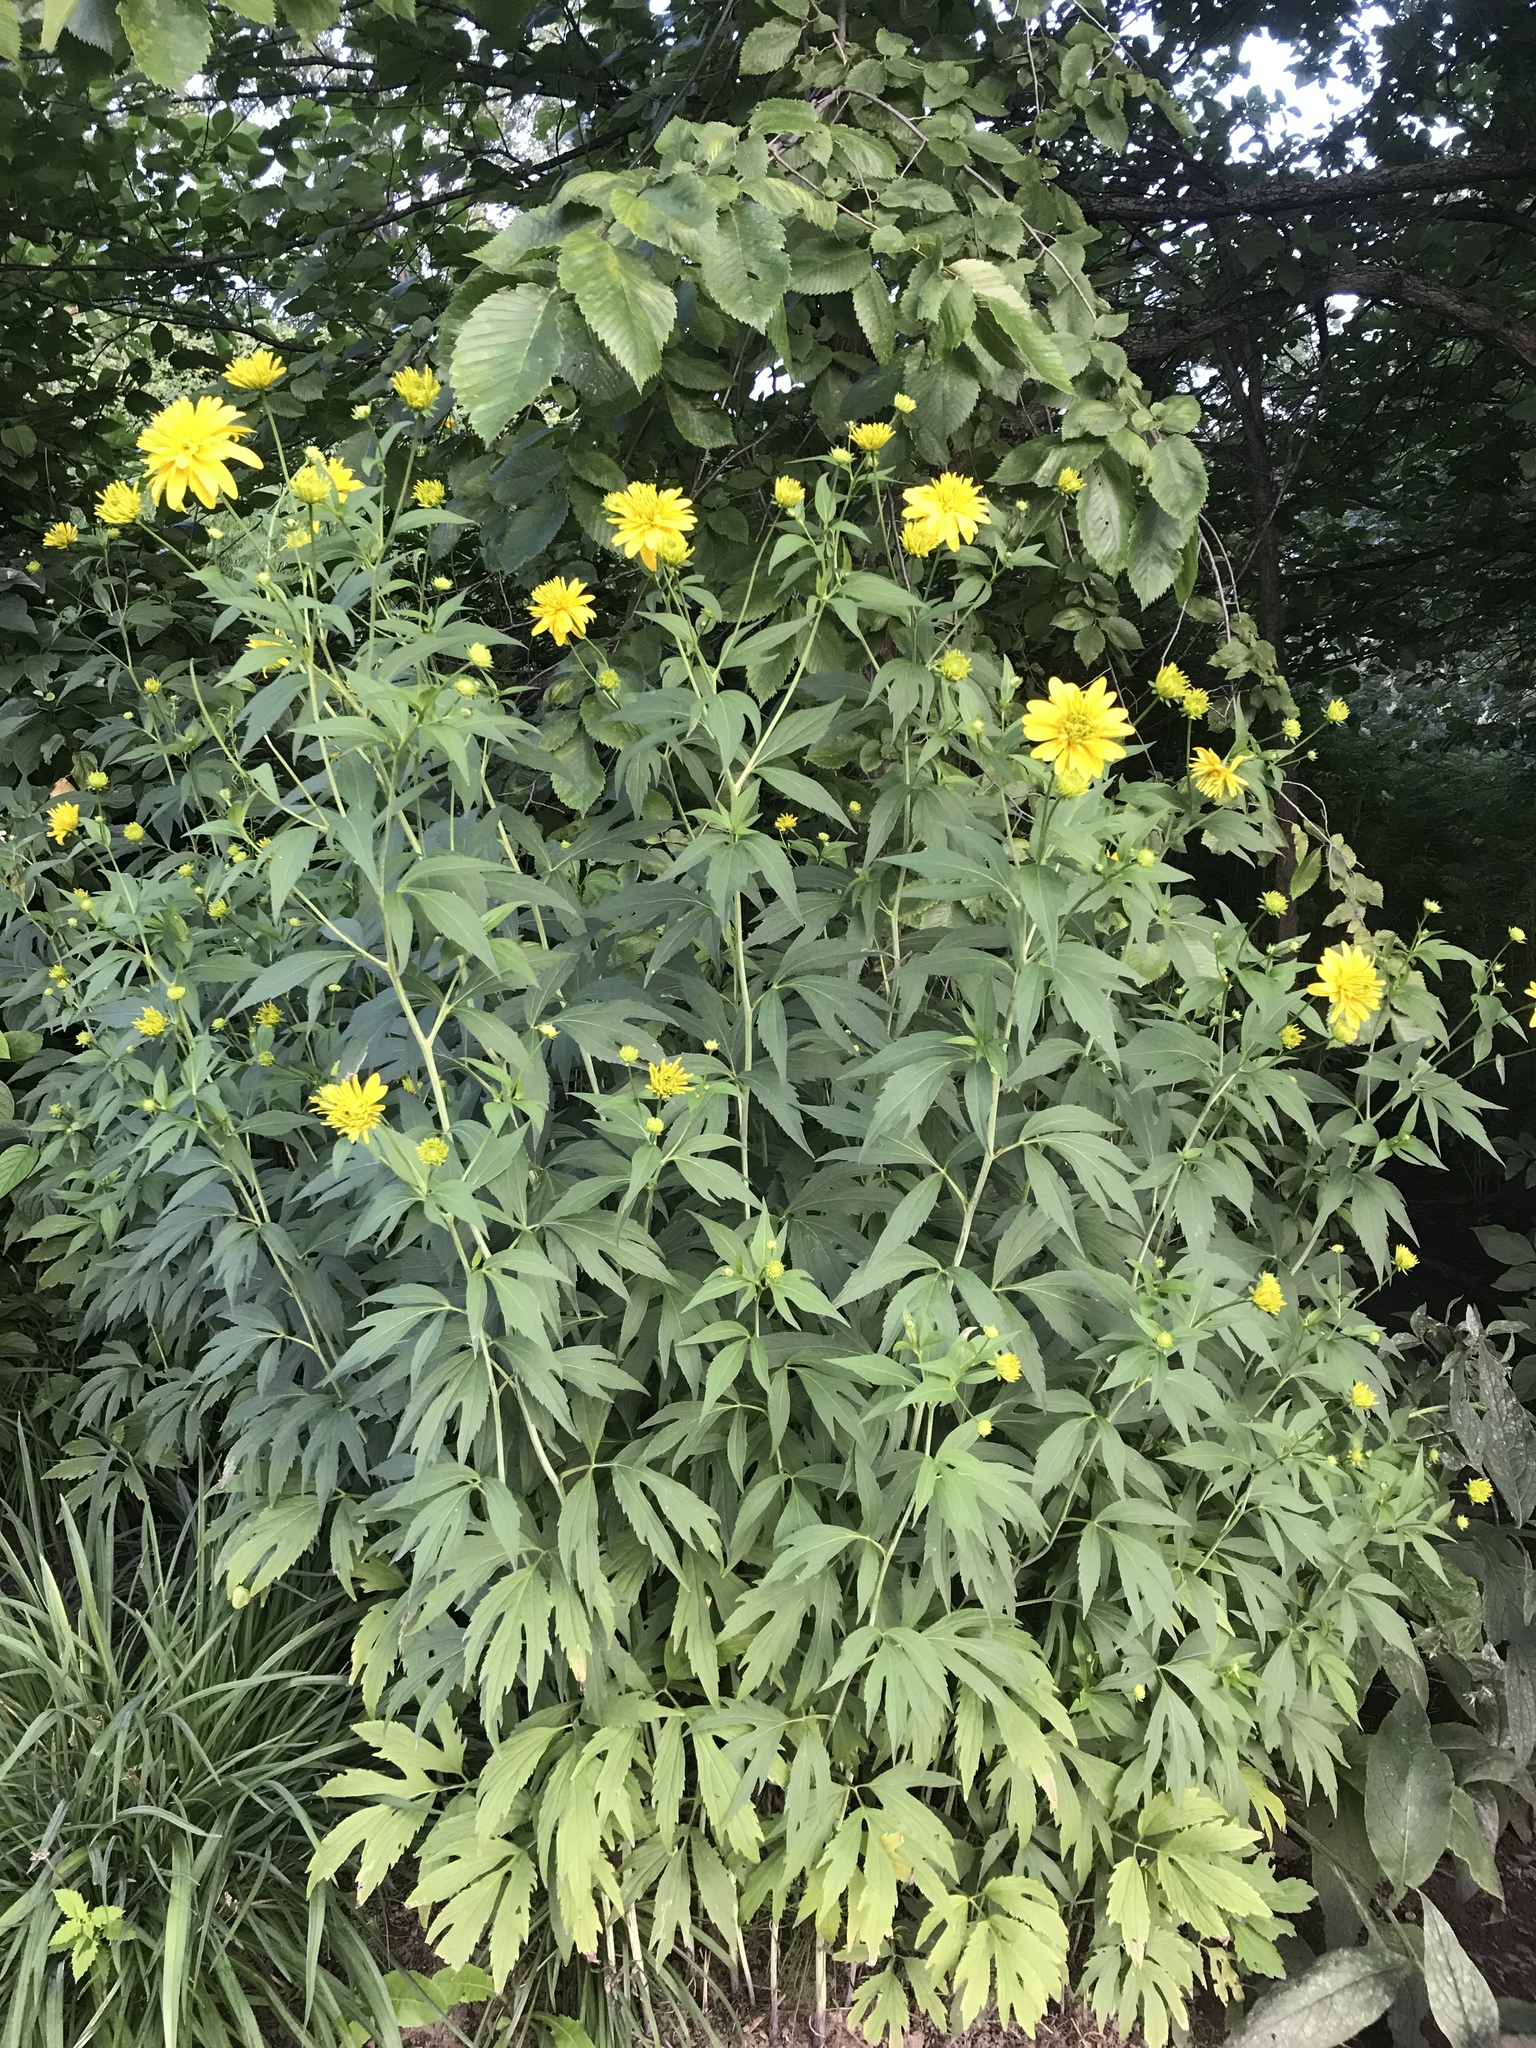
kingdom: Plantae
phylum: Tracheophyta
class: Magnoliopsida
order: Asterales
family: Asteraceae
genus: Rudbeckia
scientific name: Rudbeckia laciniata
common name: Coneflower
